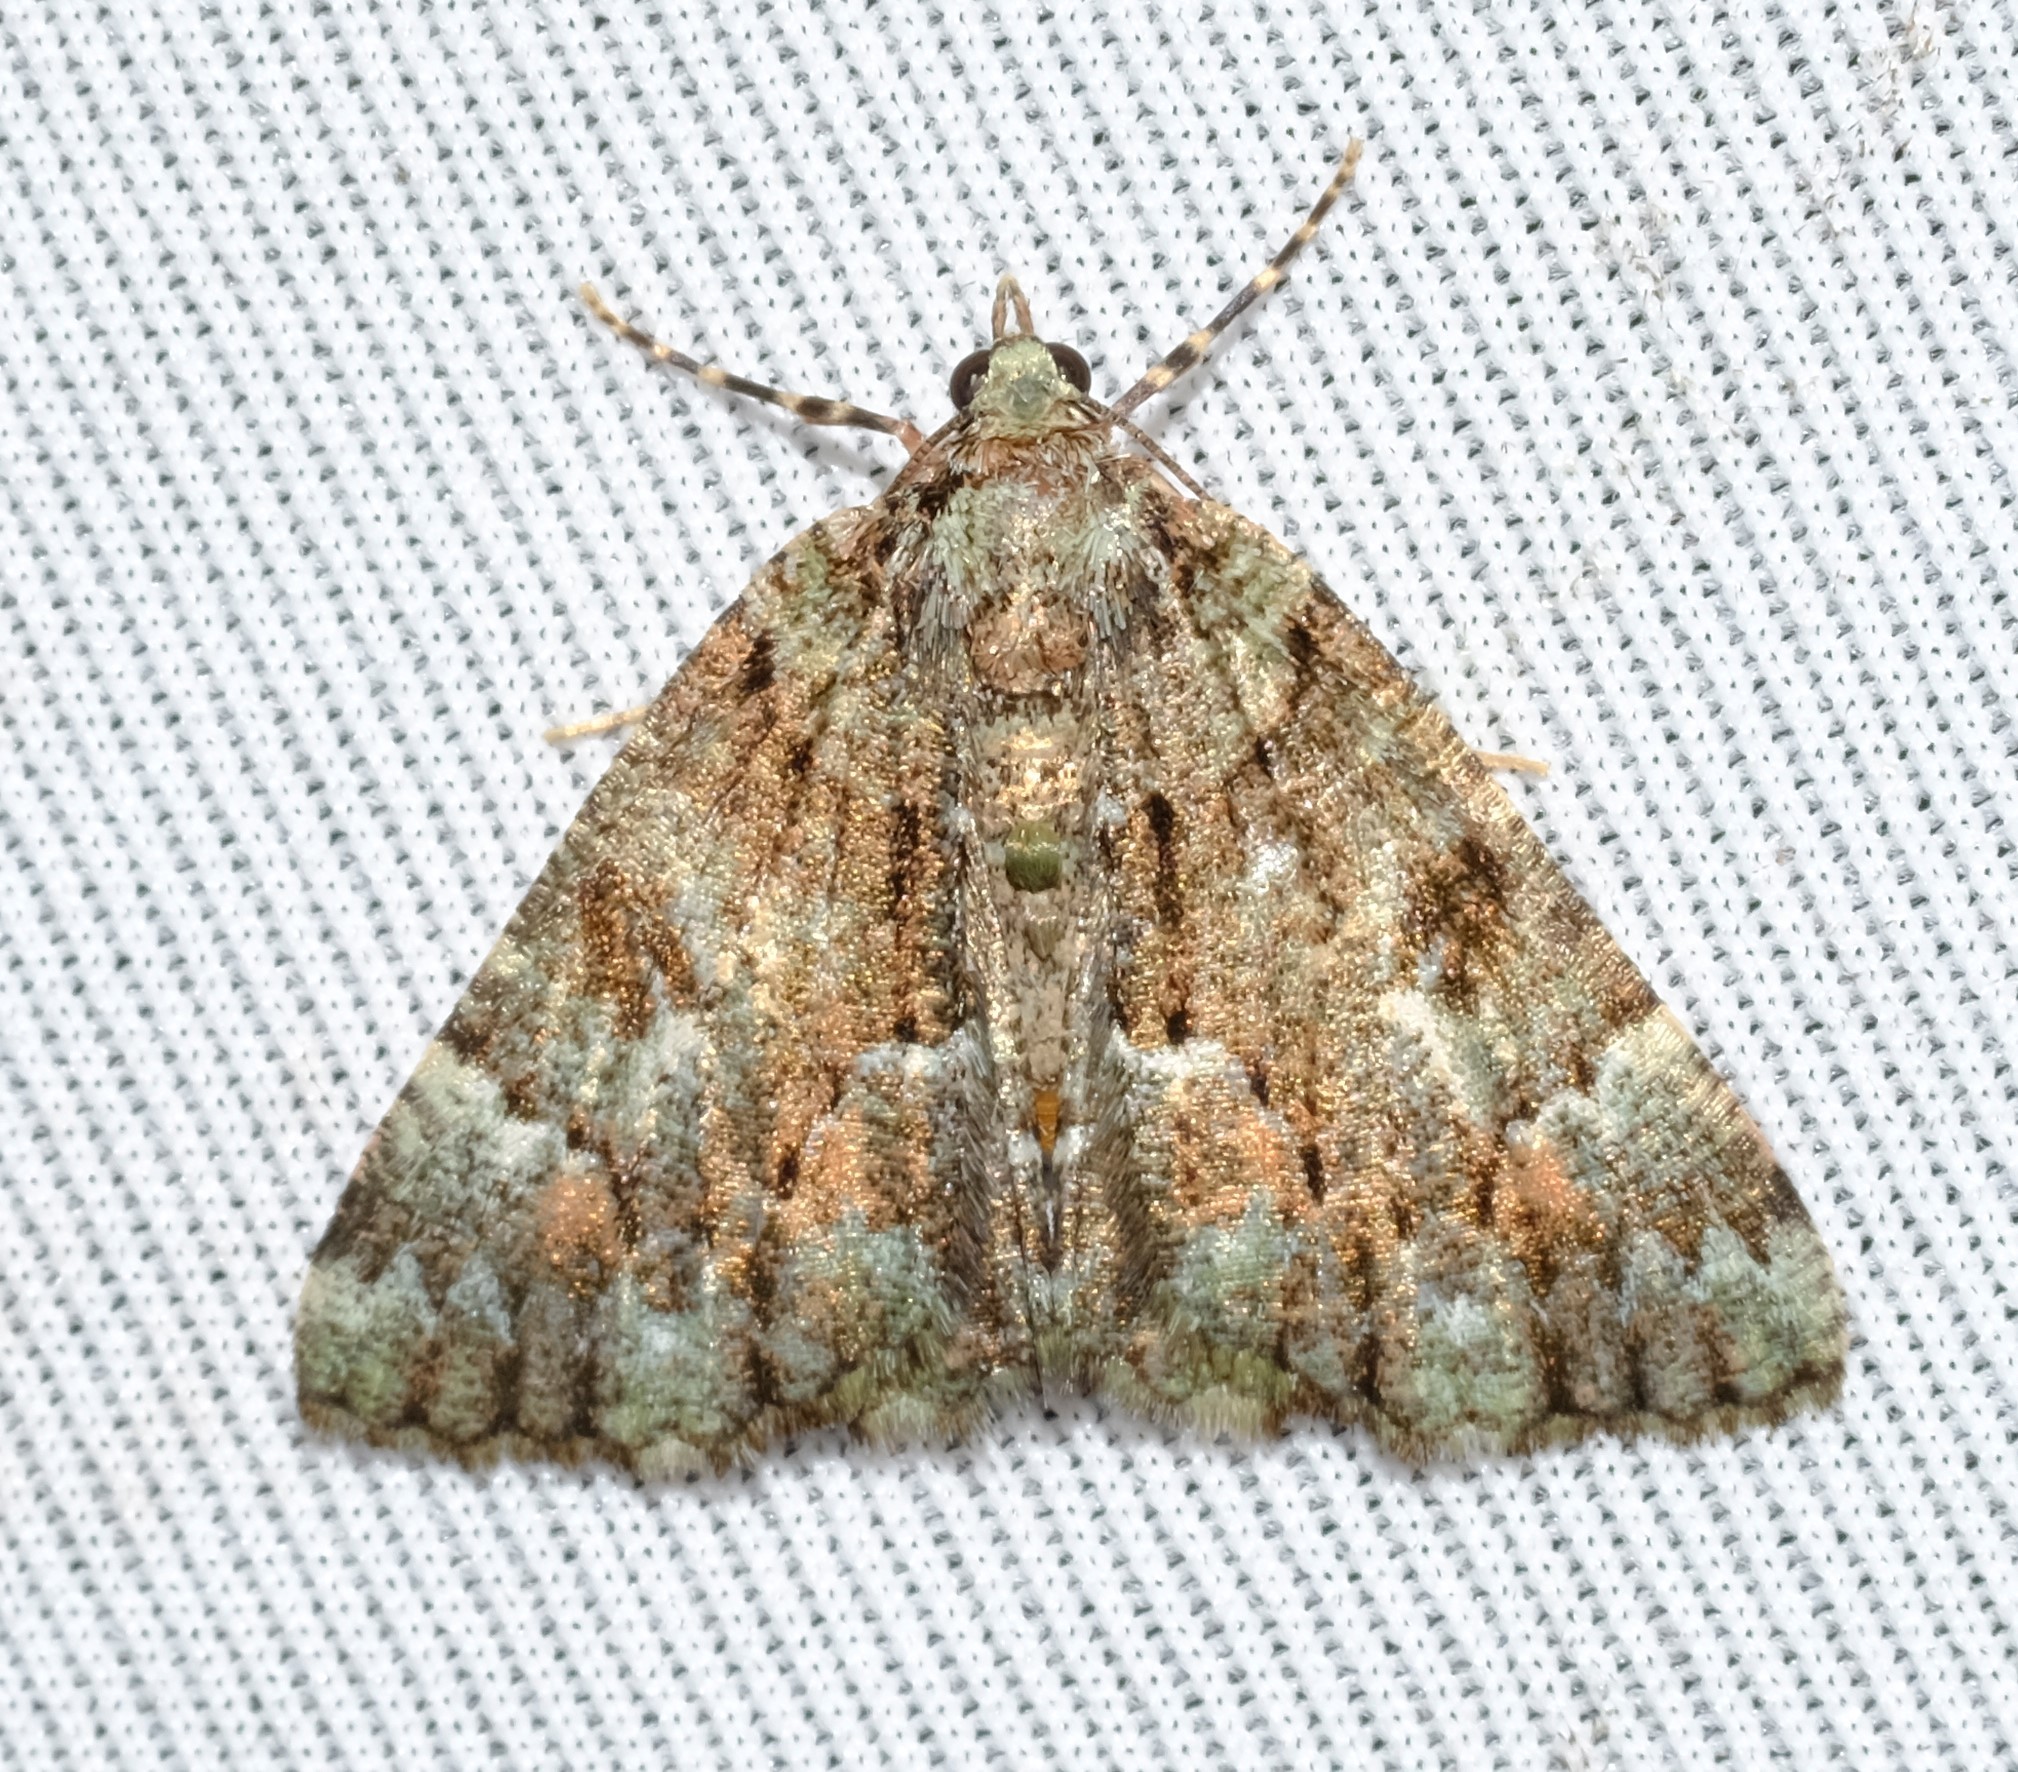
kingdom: Animalia
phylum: Arthropoda
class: Insecta
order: Lepidoptera
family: Geometridae
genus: Aeolochroma
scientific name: Aeolochroma metarhodata
